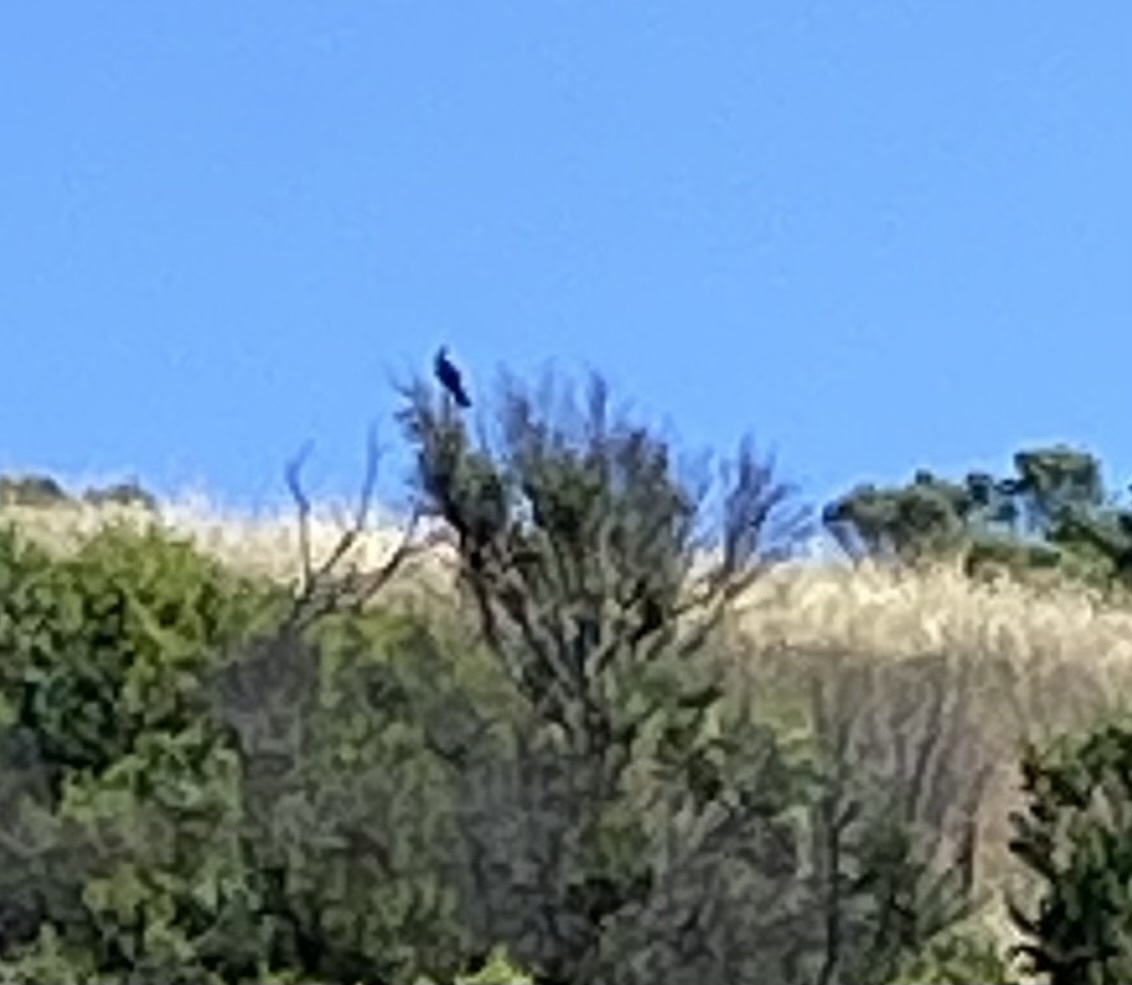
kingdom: Animalia
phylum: Chordata
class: Aves
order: Passeriformes
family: Mimidae
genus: Toxostoma
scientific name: Toxostoma redivivum
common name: California thrasher
